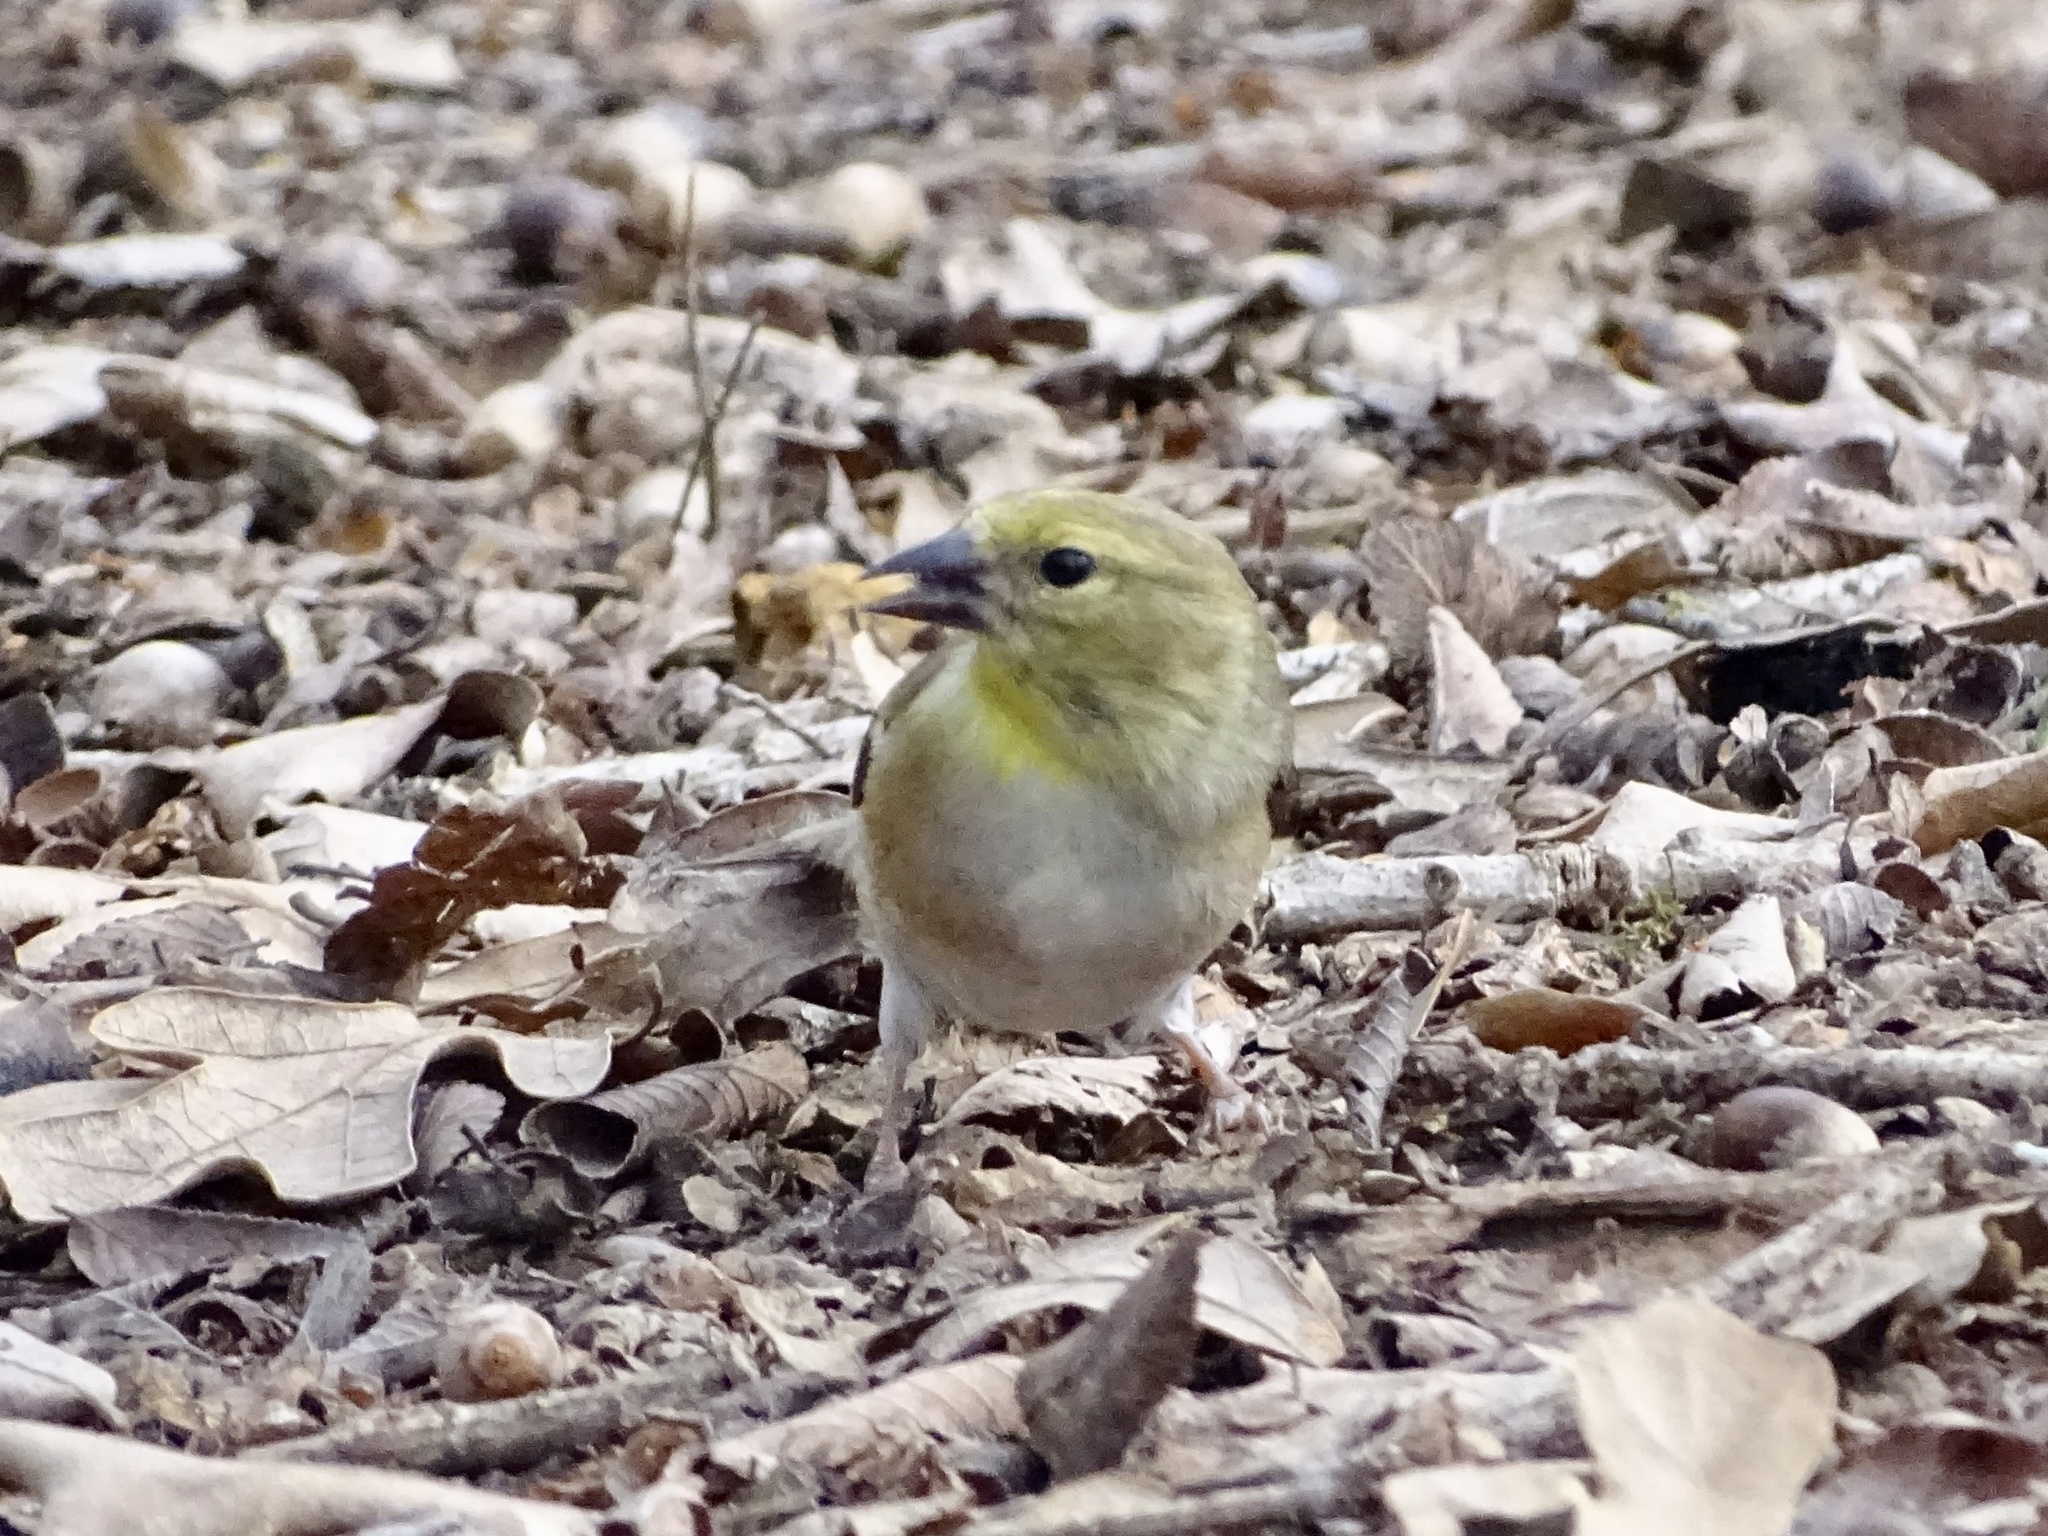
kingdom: Animalia
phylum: Chordata
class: Aves
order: Passeriformes
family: Fringillidae
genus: Spinus
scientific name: Spinus tristis
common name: American goldfinch
